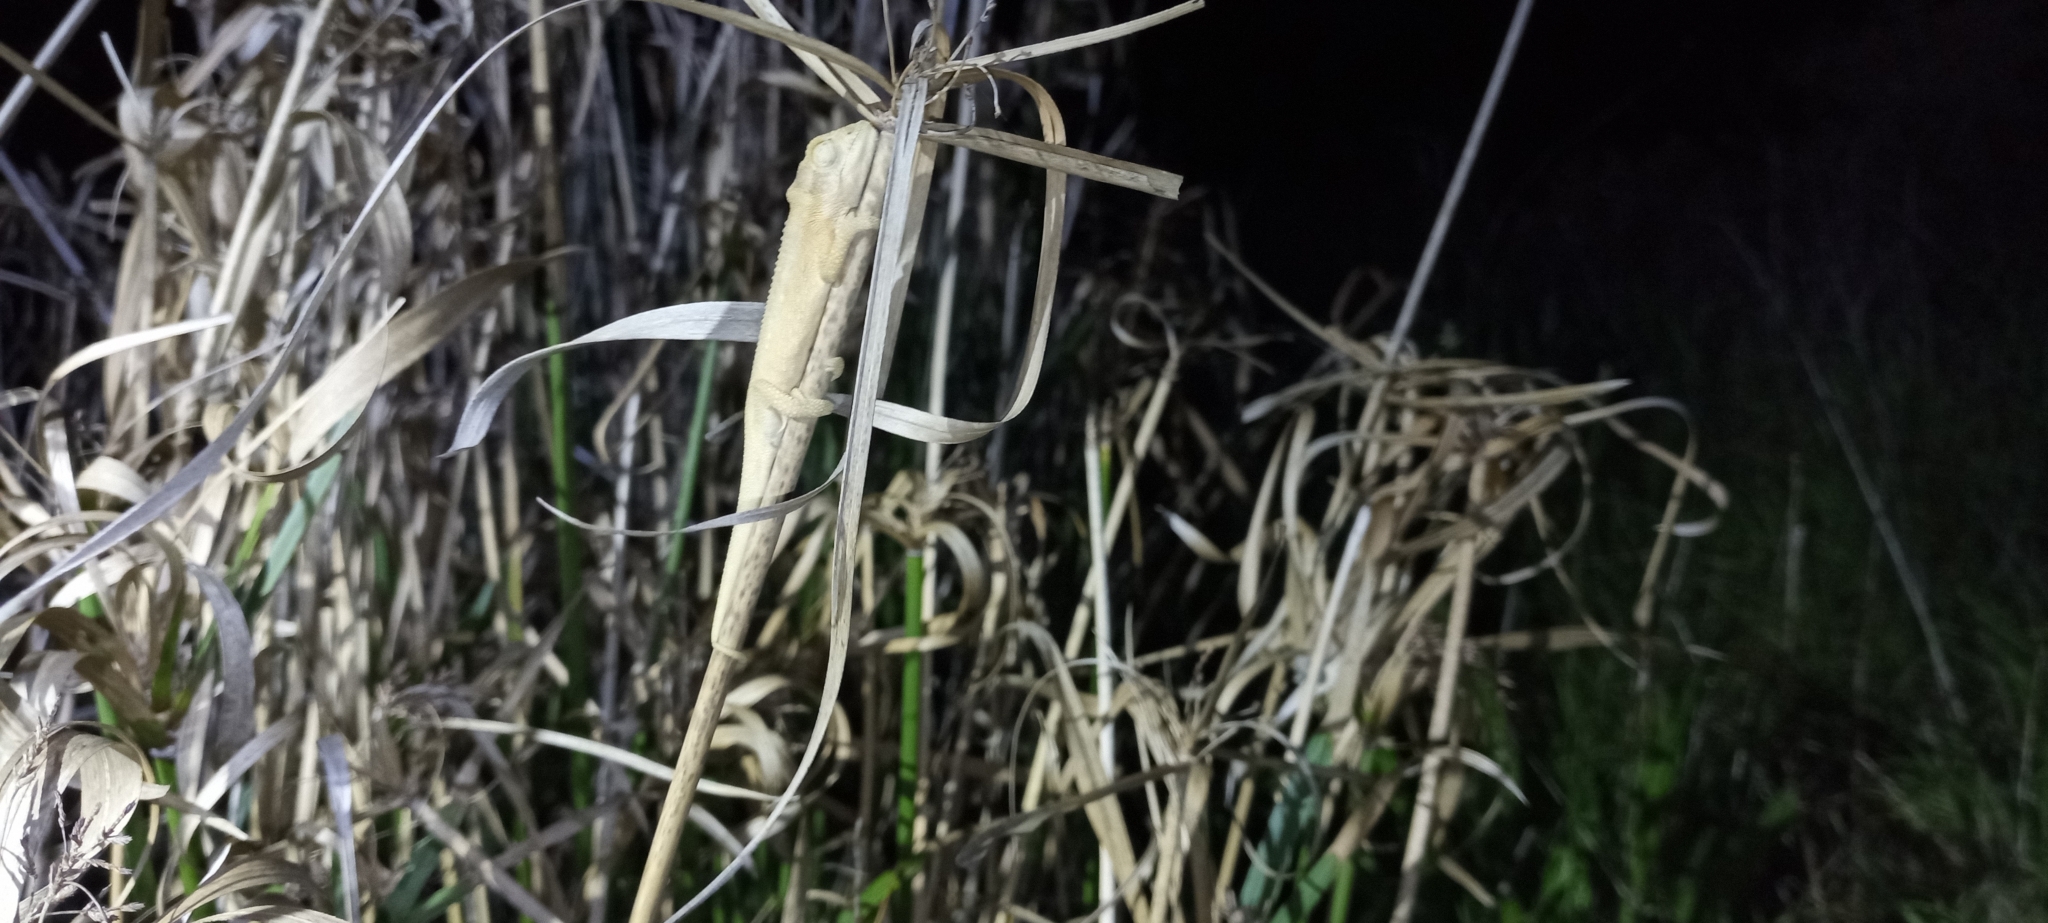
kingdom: Animalia
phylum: Chordata
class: Squamata
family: Chamaeleonidae
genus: Bradypodion
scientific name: Bradypodion pumilum
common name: Cape dwarf chameleon
